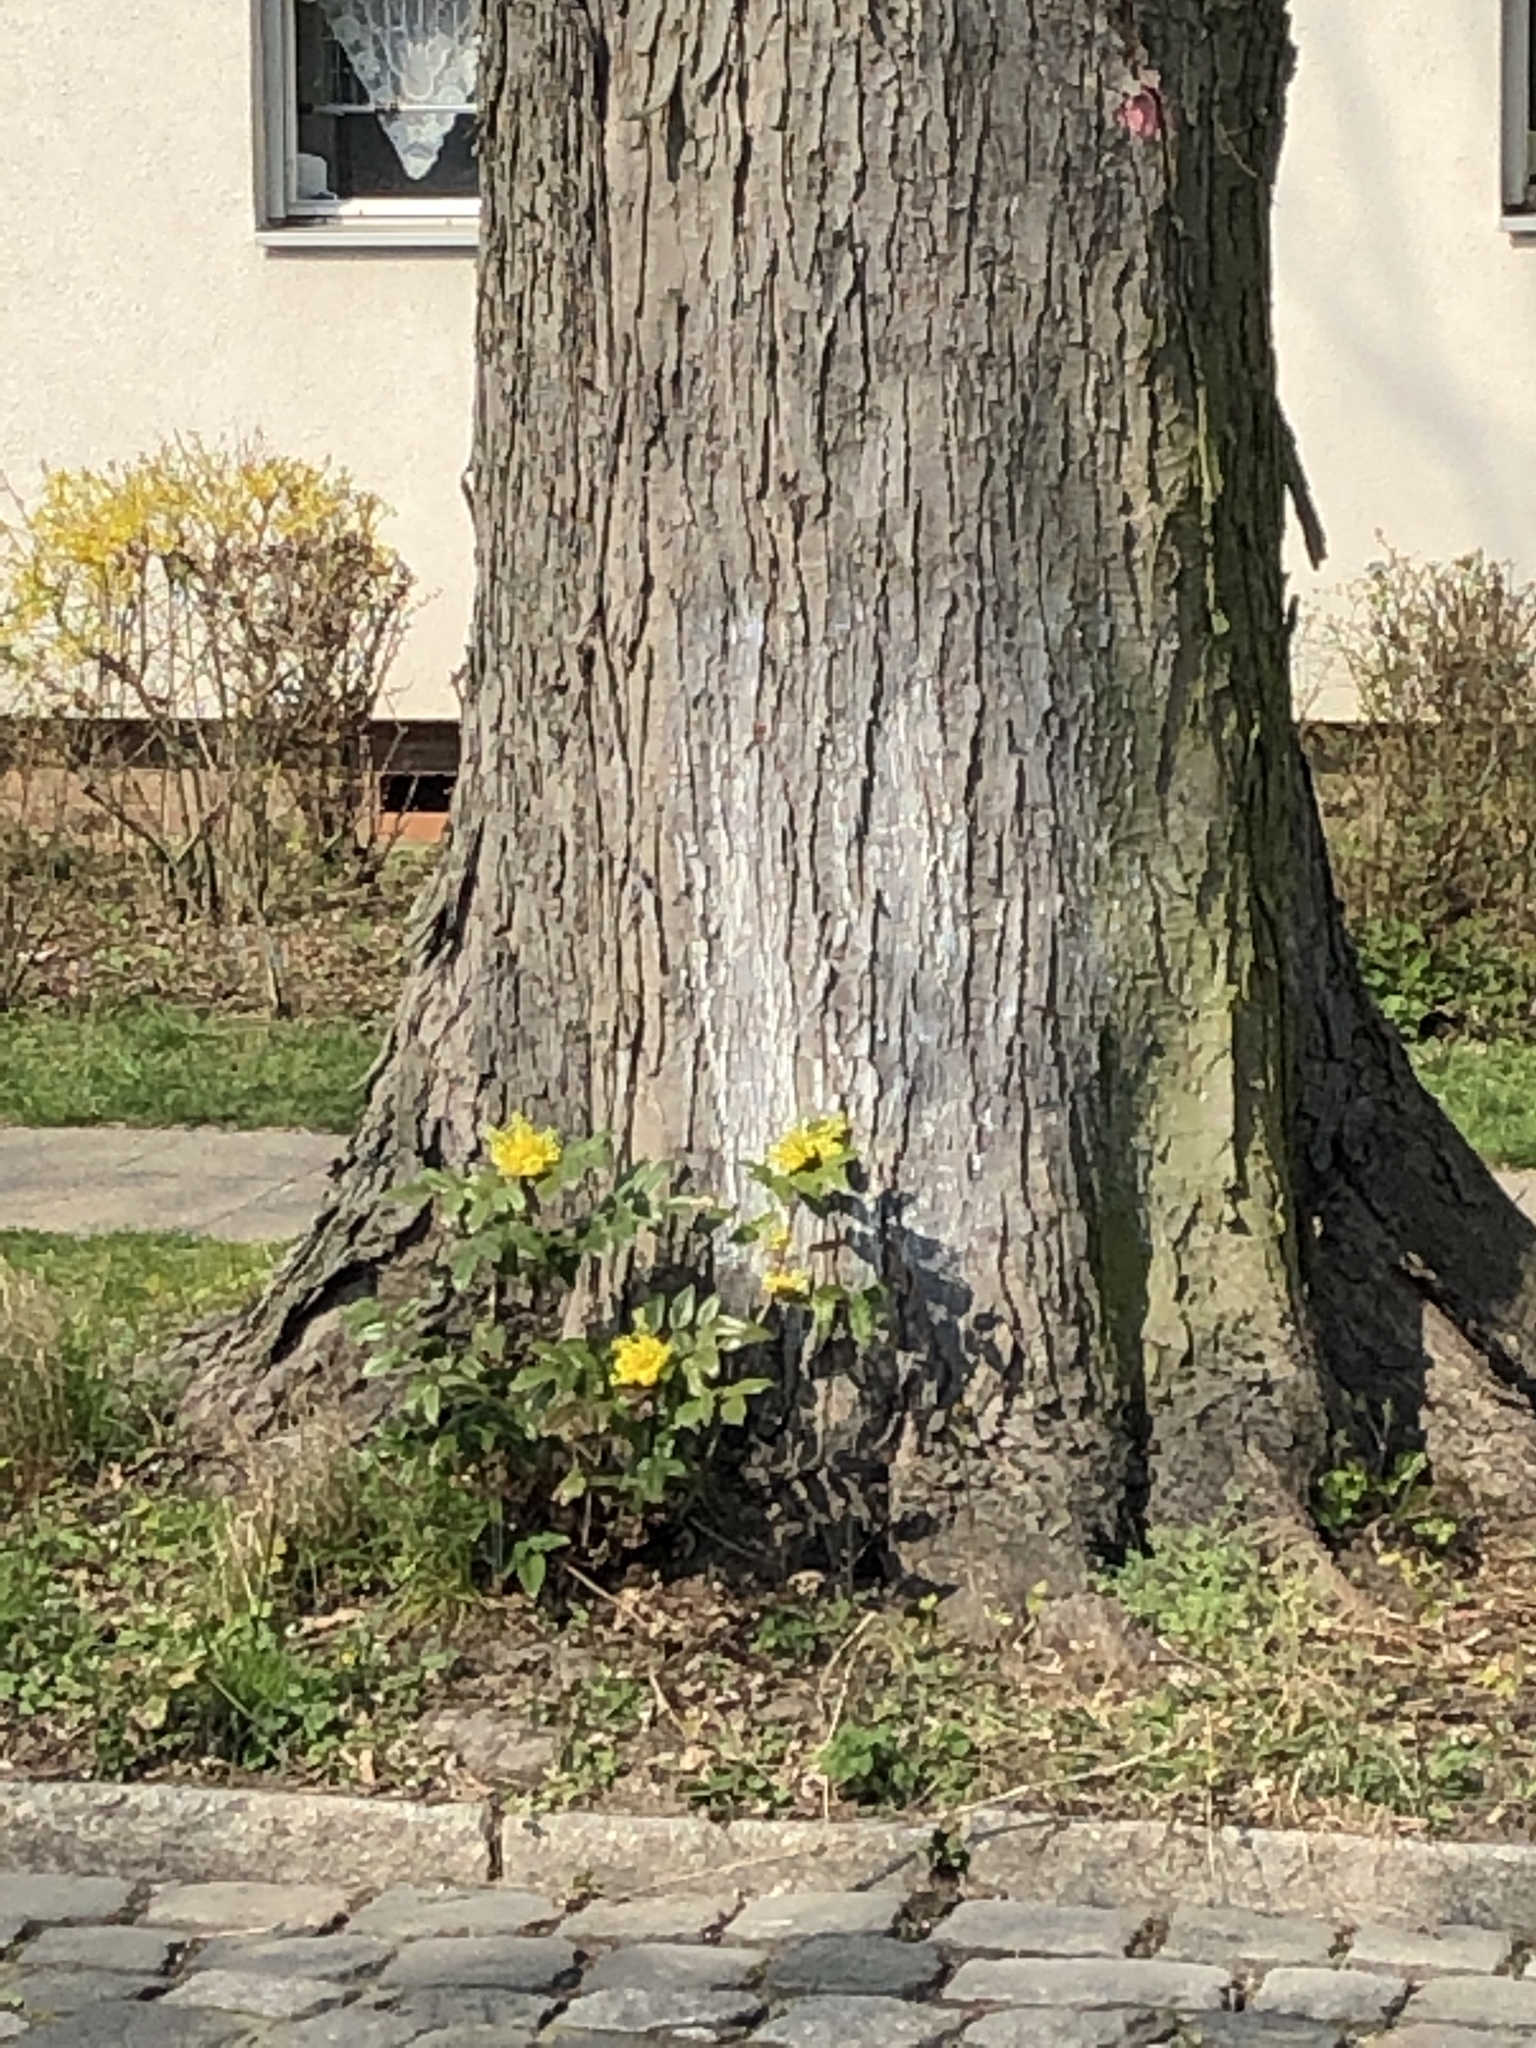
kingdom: Plantae
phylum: Tracheophyta
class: Magnoliopsida
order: Ranunculales
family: Berberidaceae
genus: Mahonia
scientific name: Mahonia aquifolium
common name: Oregon-grape
